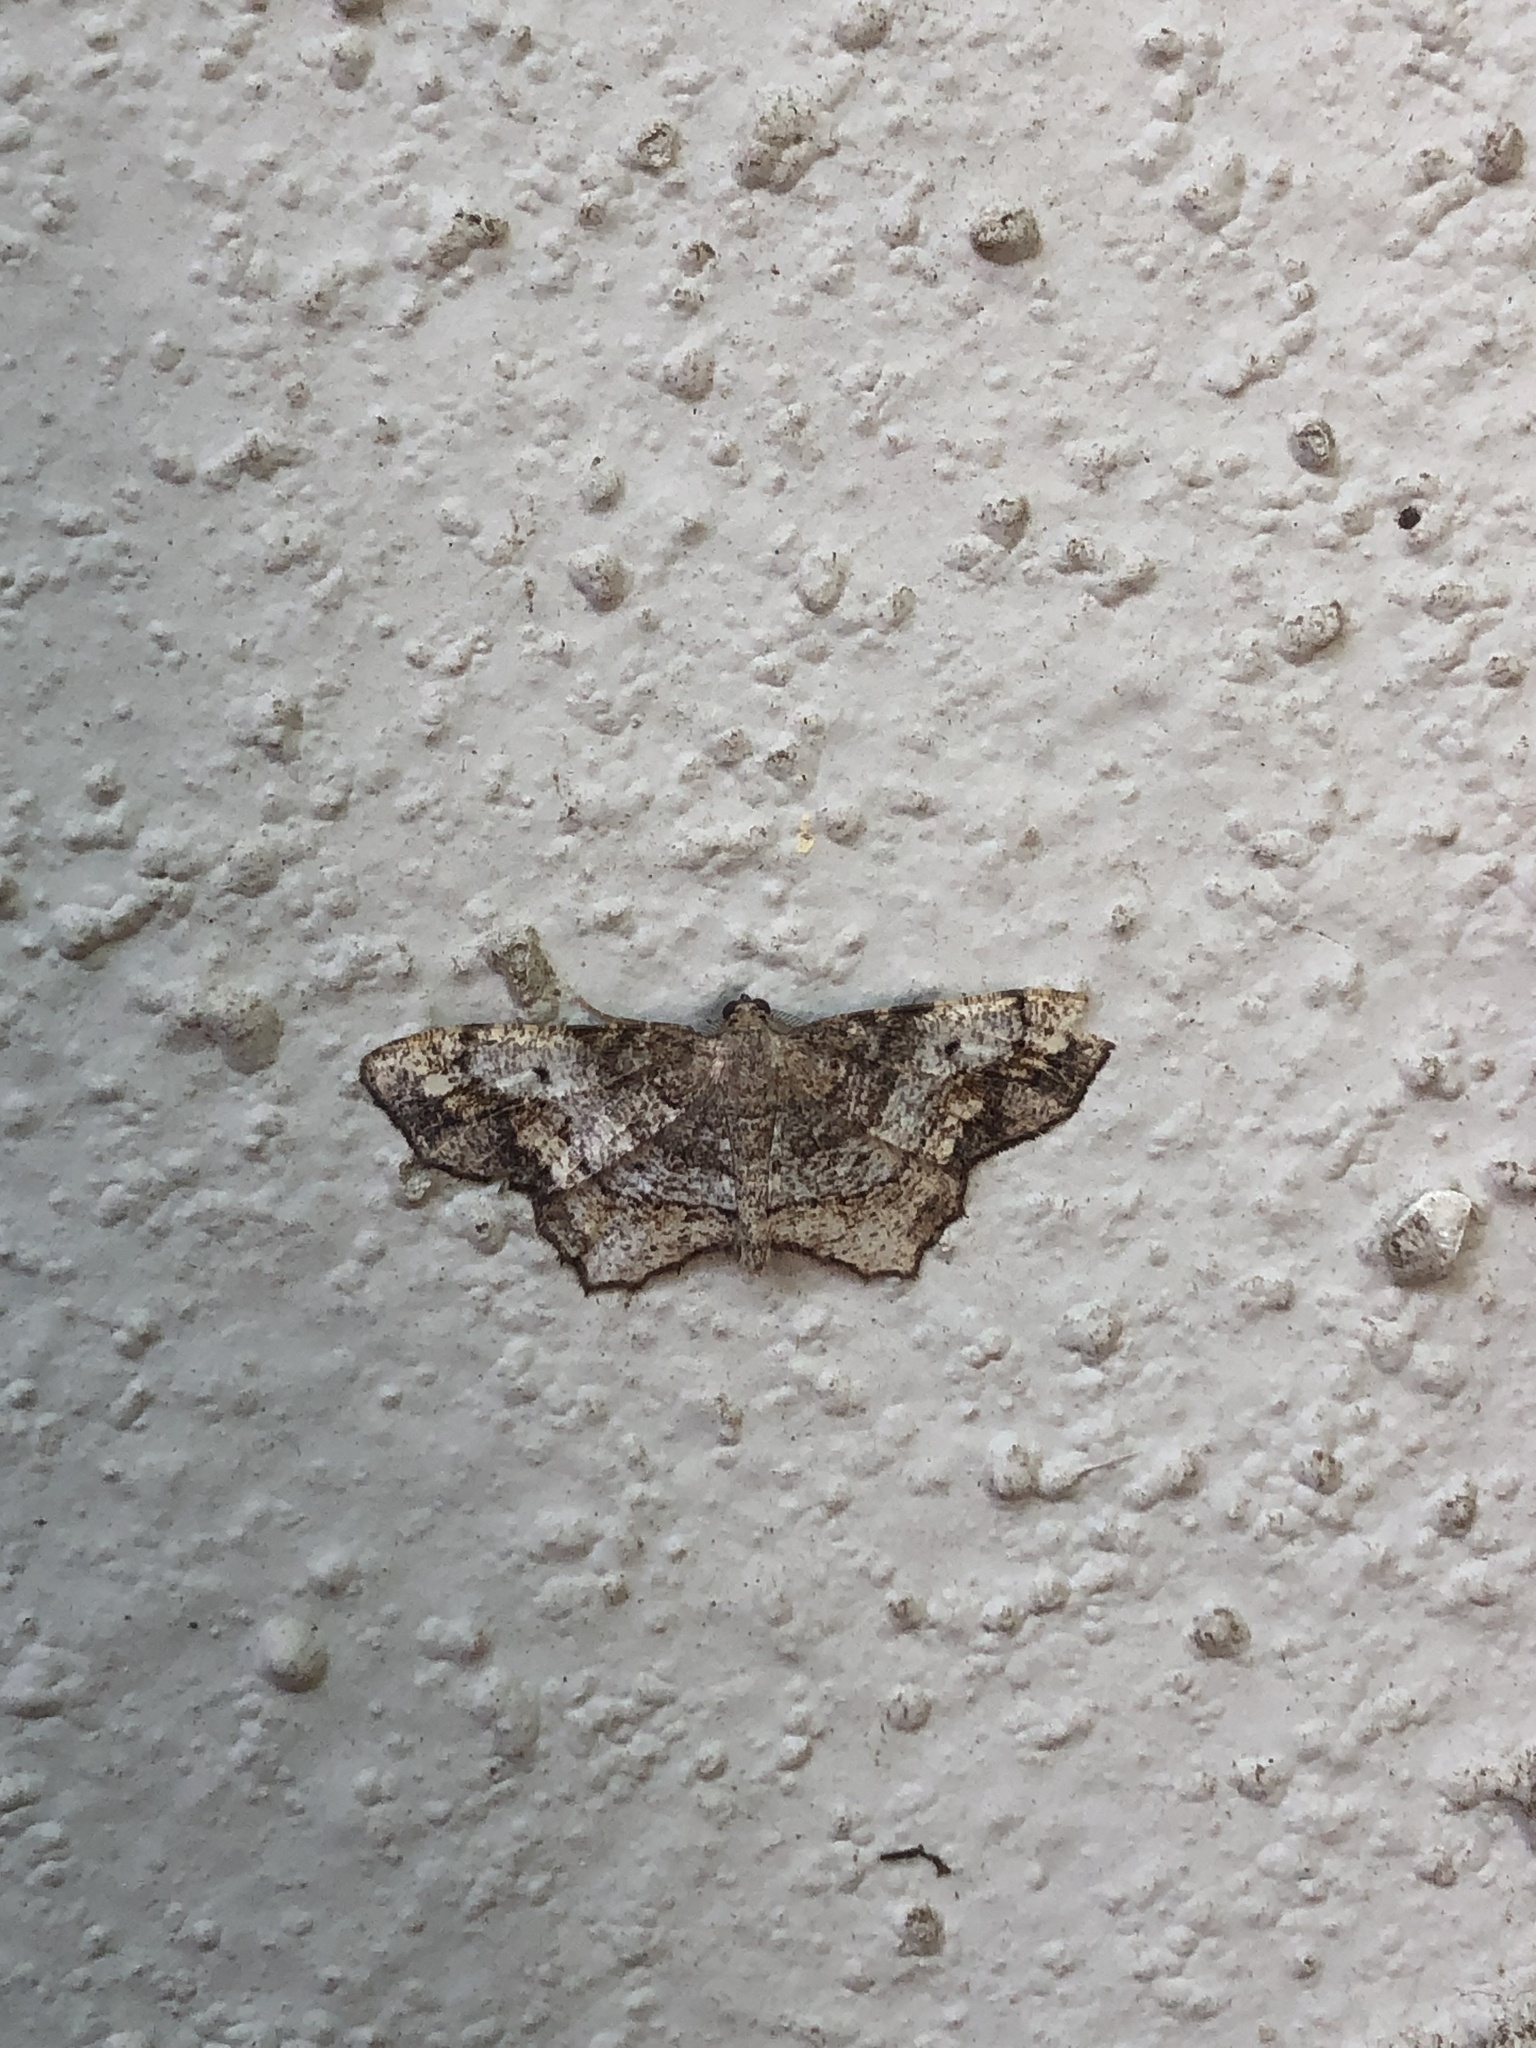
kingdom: Animalia
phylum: Arthropoda
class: Insecta
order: Lepidoptera
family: Geometridae
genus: Hypagyrtis
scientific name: Hypagyrtis unipunctata
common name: One-spotted variant
